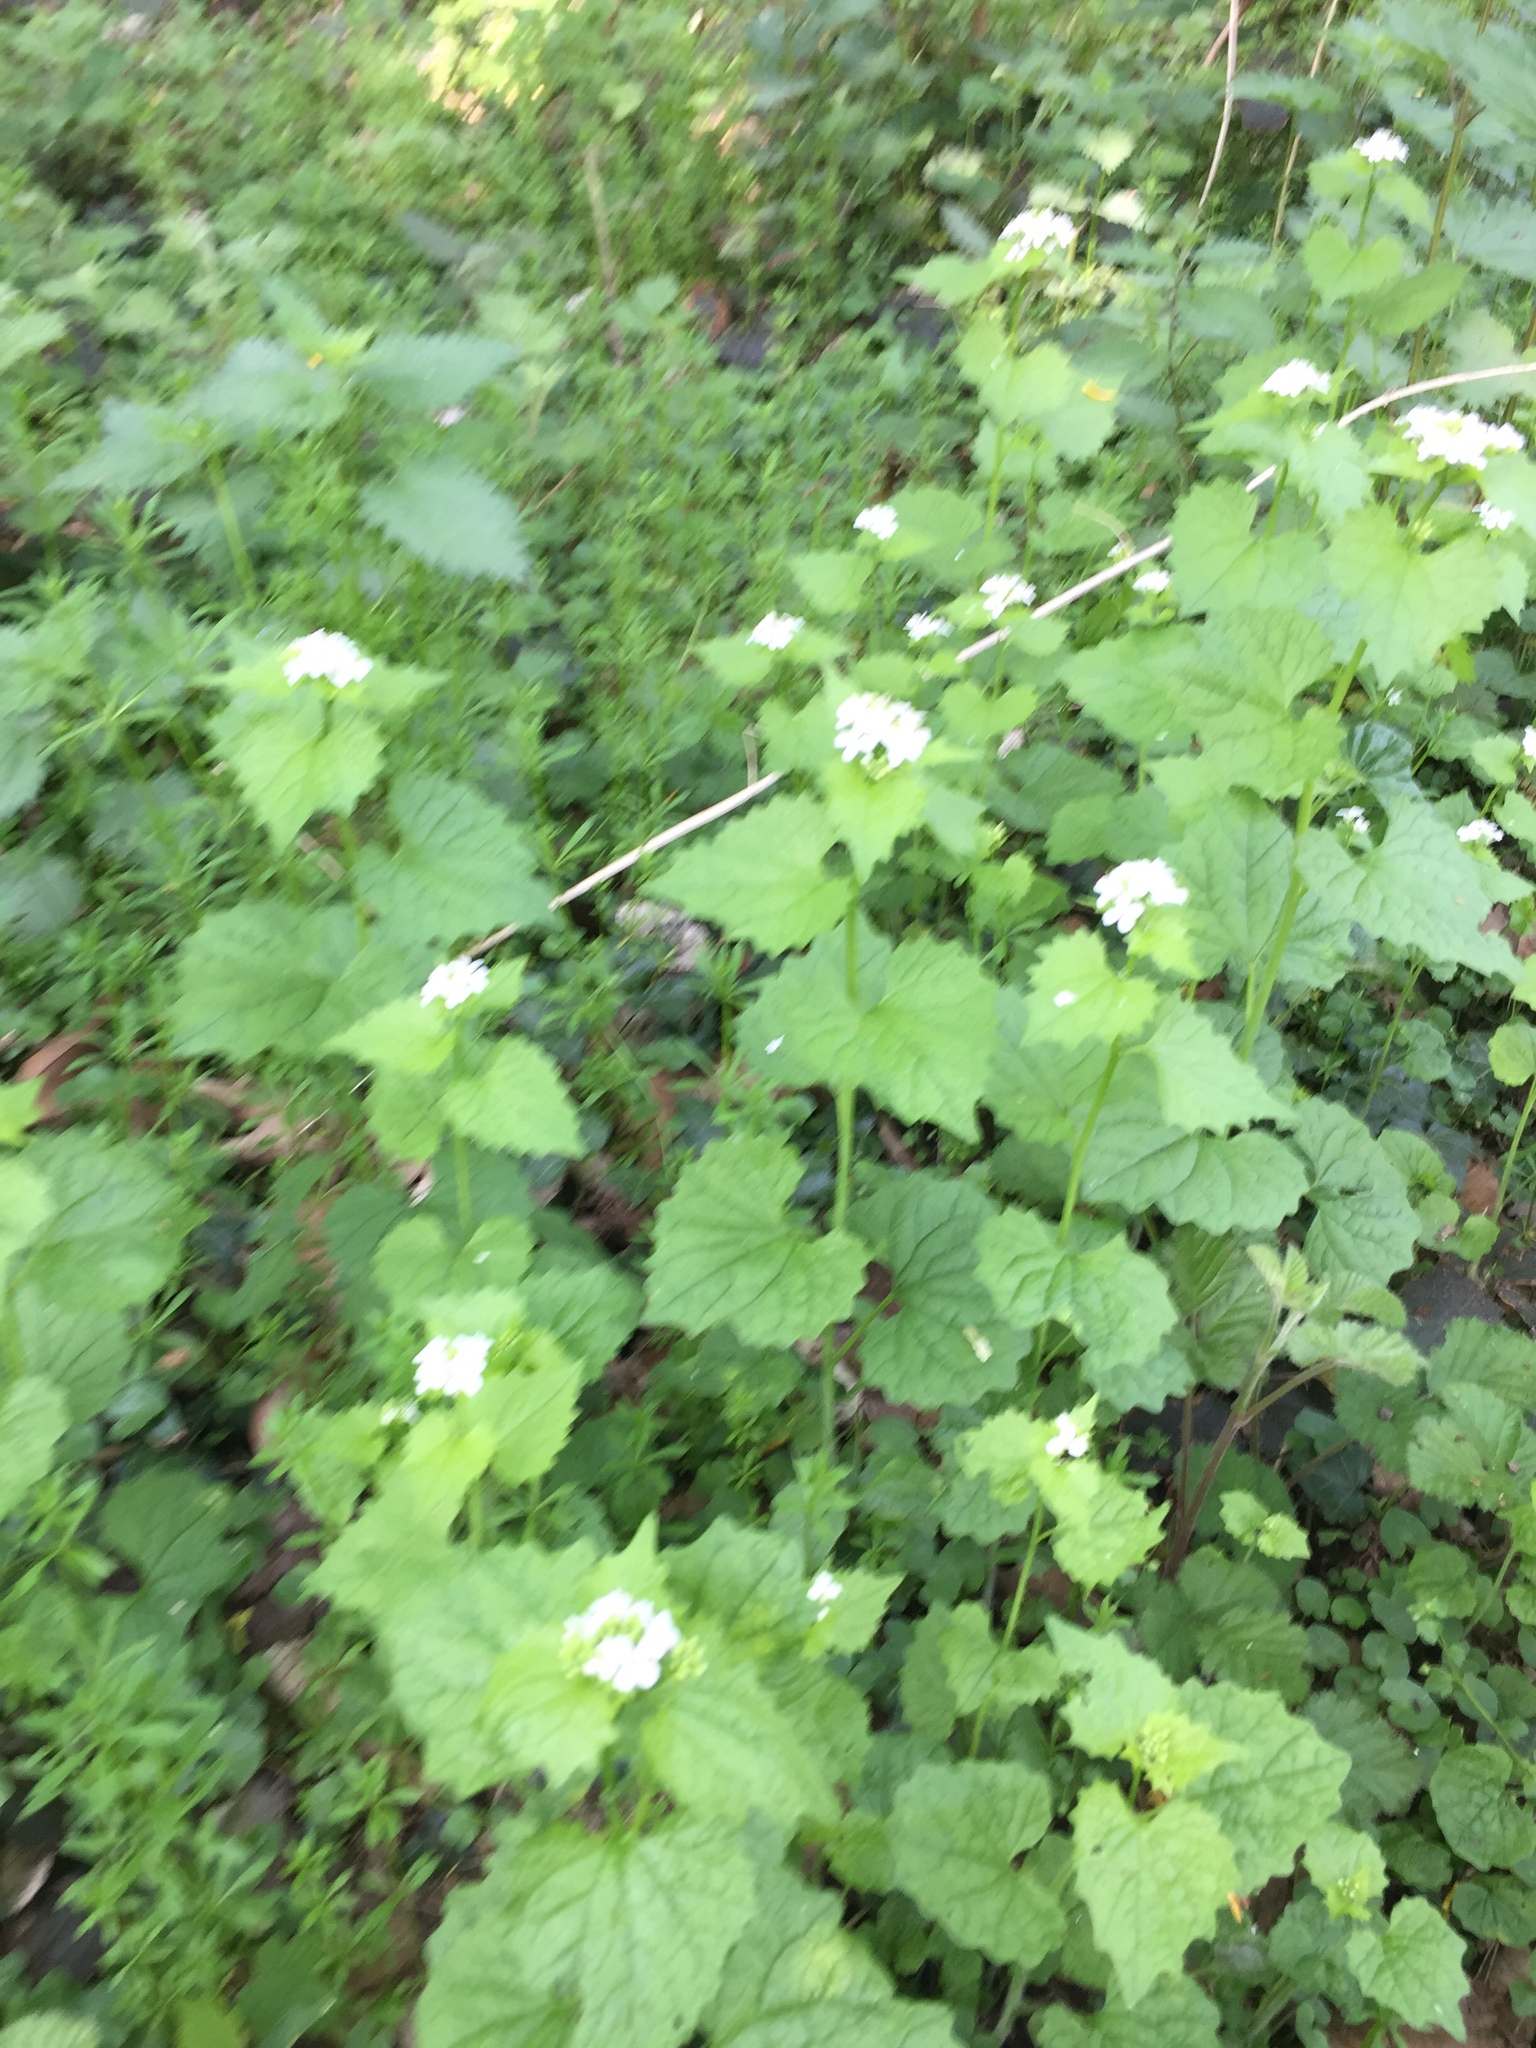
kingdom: Plantae
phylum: Tracheophyta
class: Magnoliopsida
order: Brassicales
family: Brassicaceae
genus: Alliaria
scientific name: Alliaria petiolata
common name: Garlic mustard
